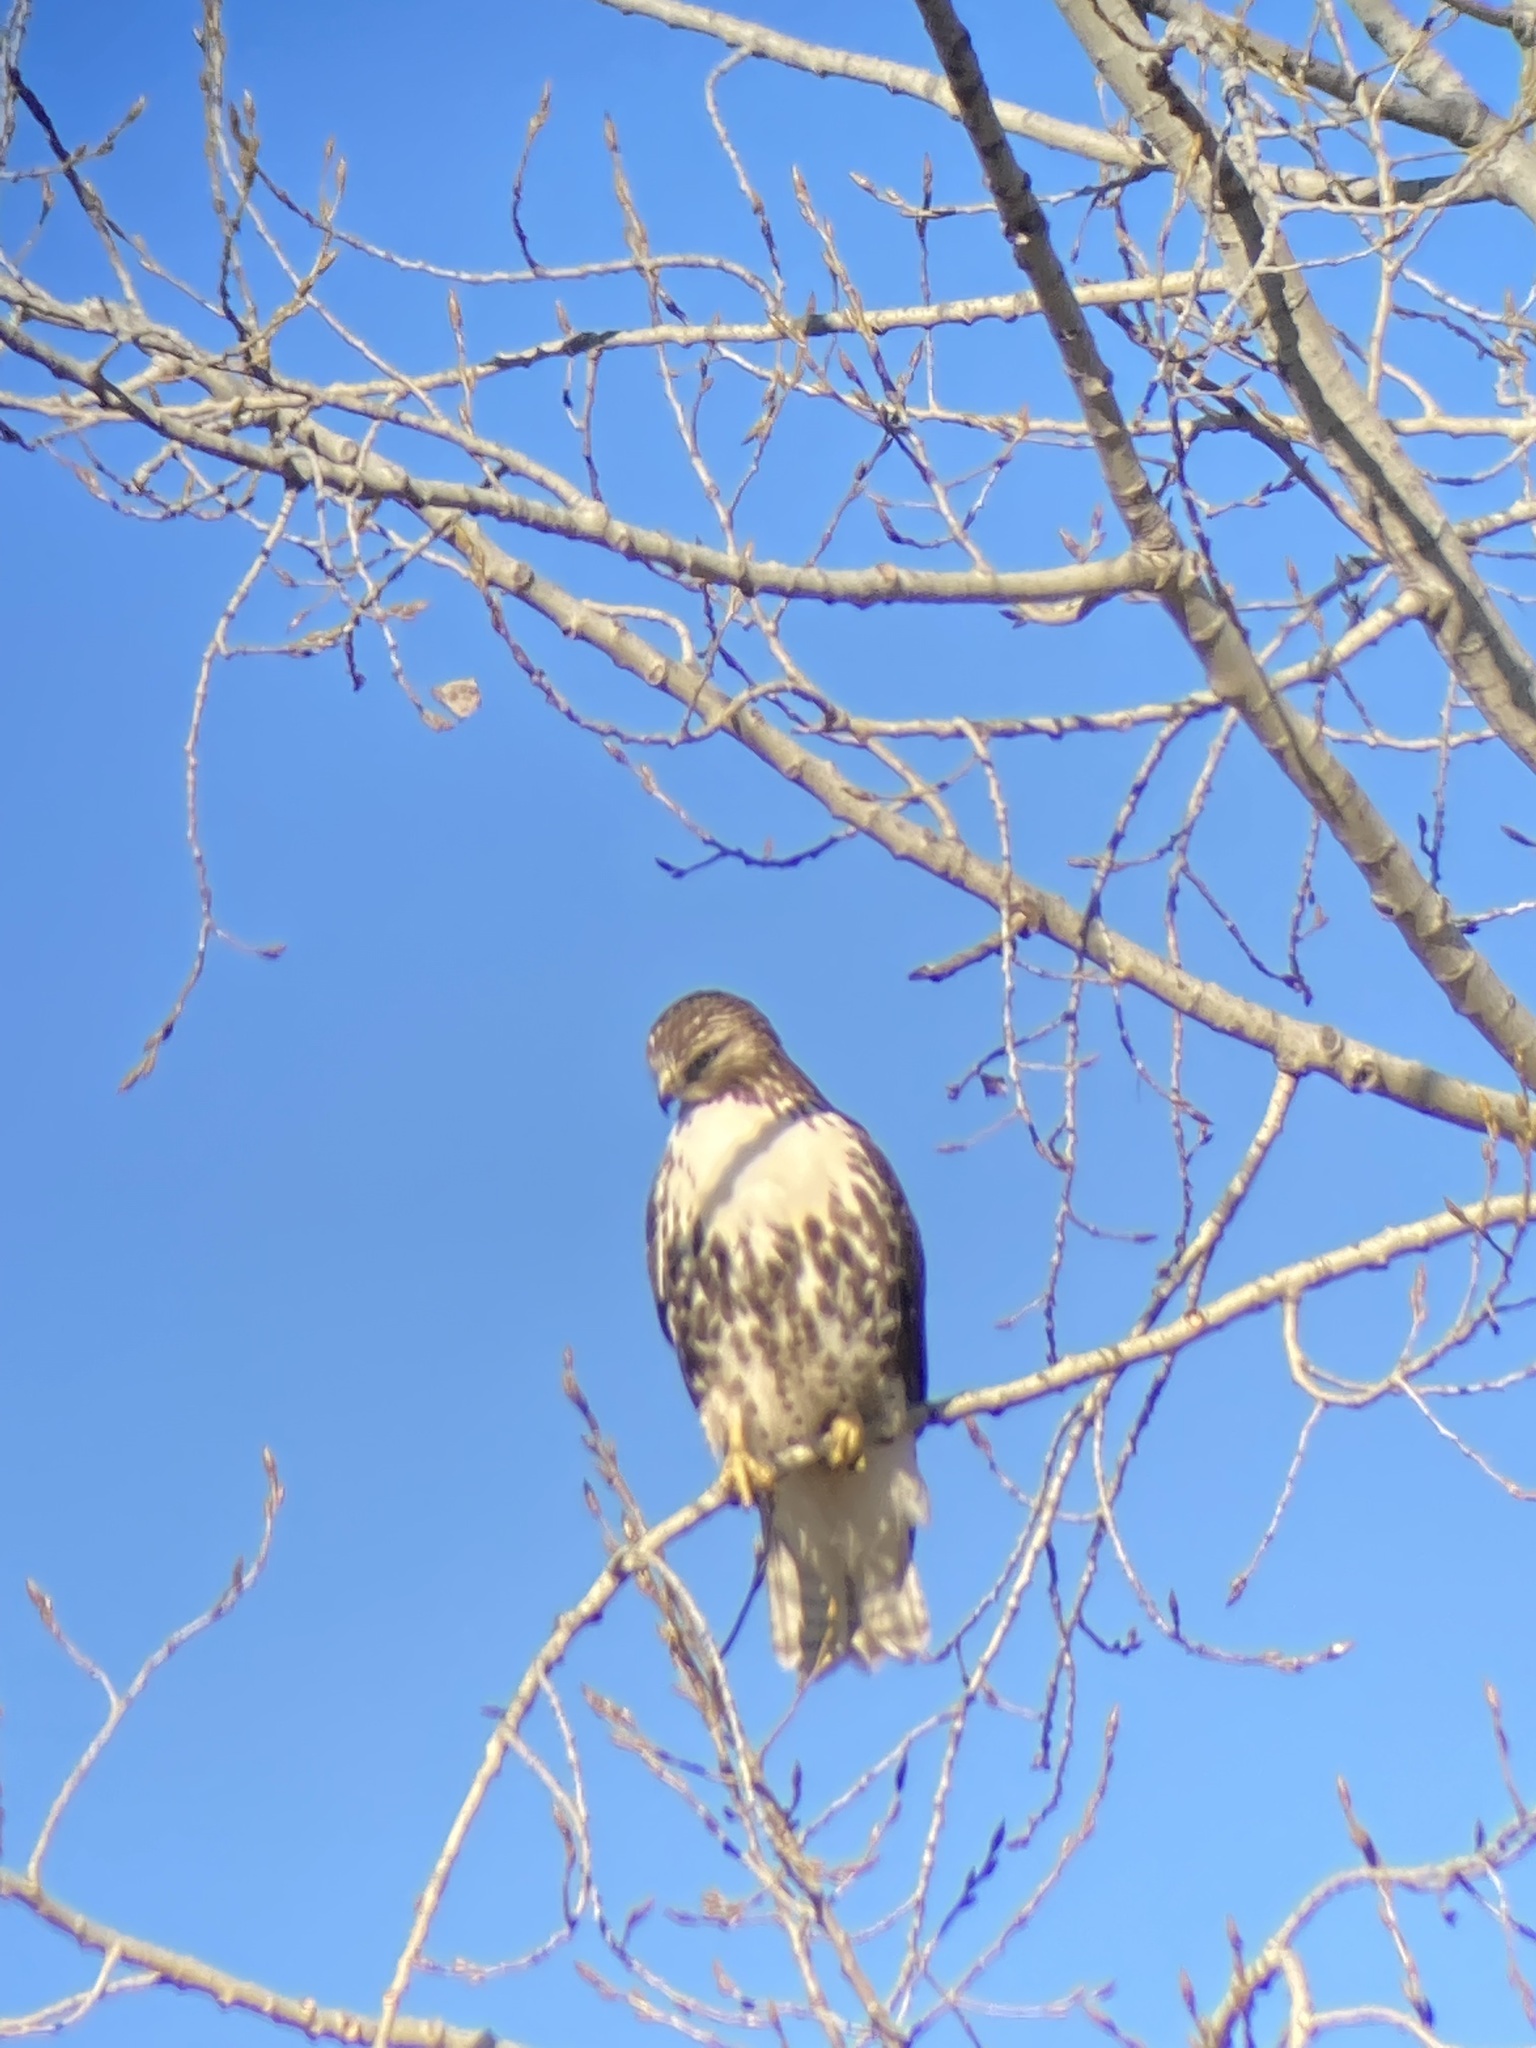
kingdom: Animalia
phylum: Chordata
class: Aves
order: Accipitriformes
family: Accipitridae
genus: Buteo
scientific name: Buteo jamaicensis
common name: Red-tailed hawk
